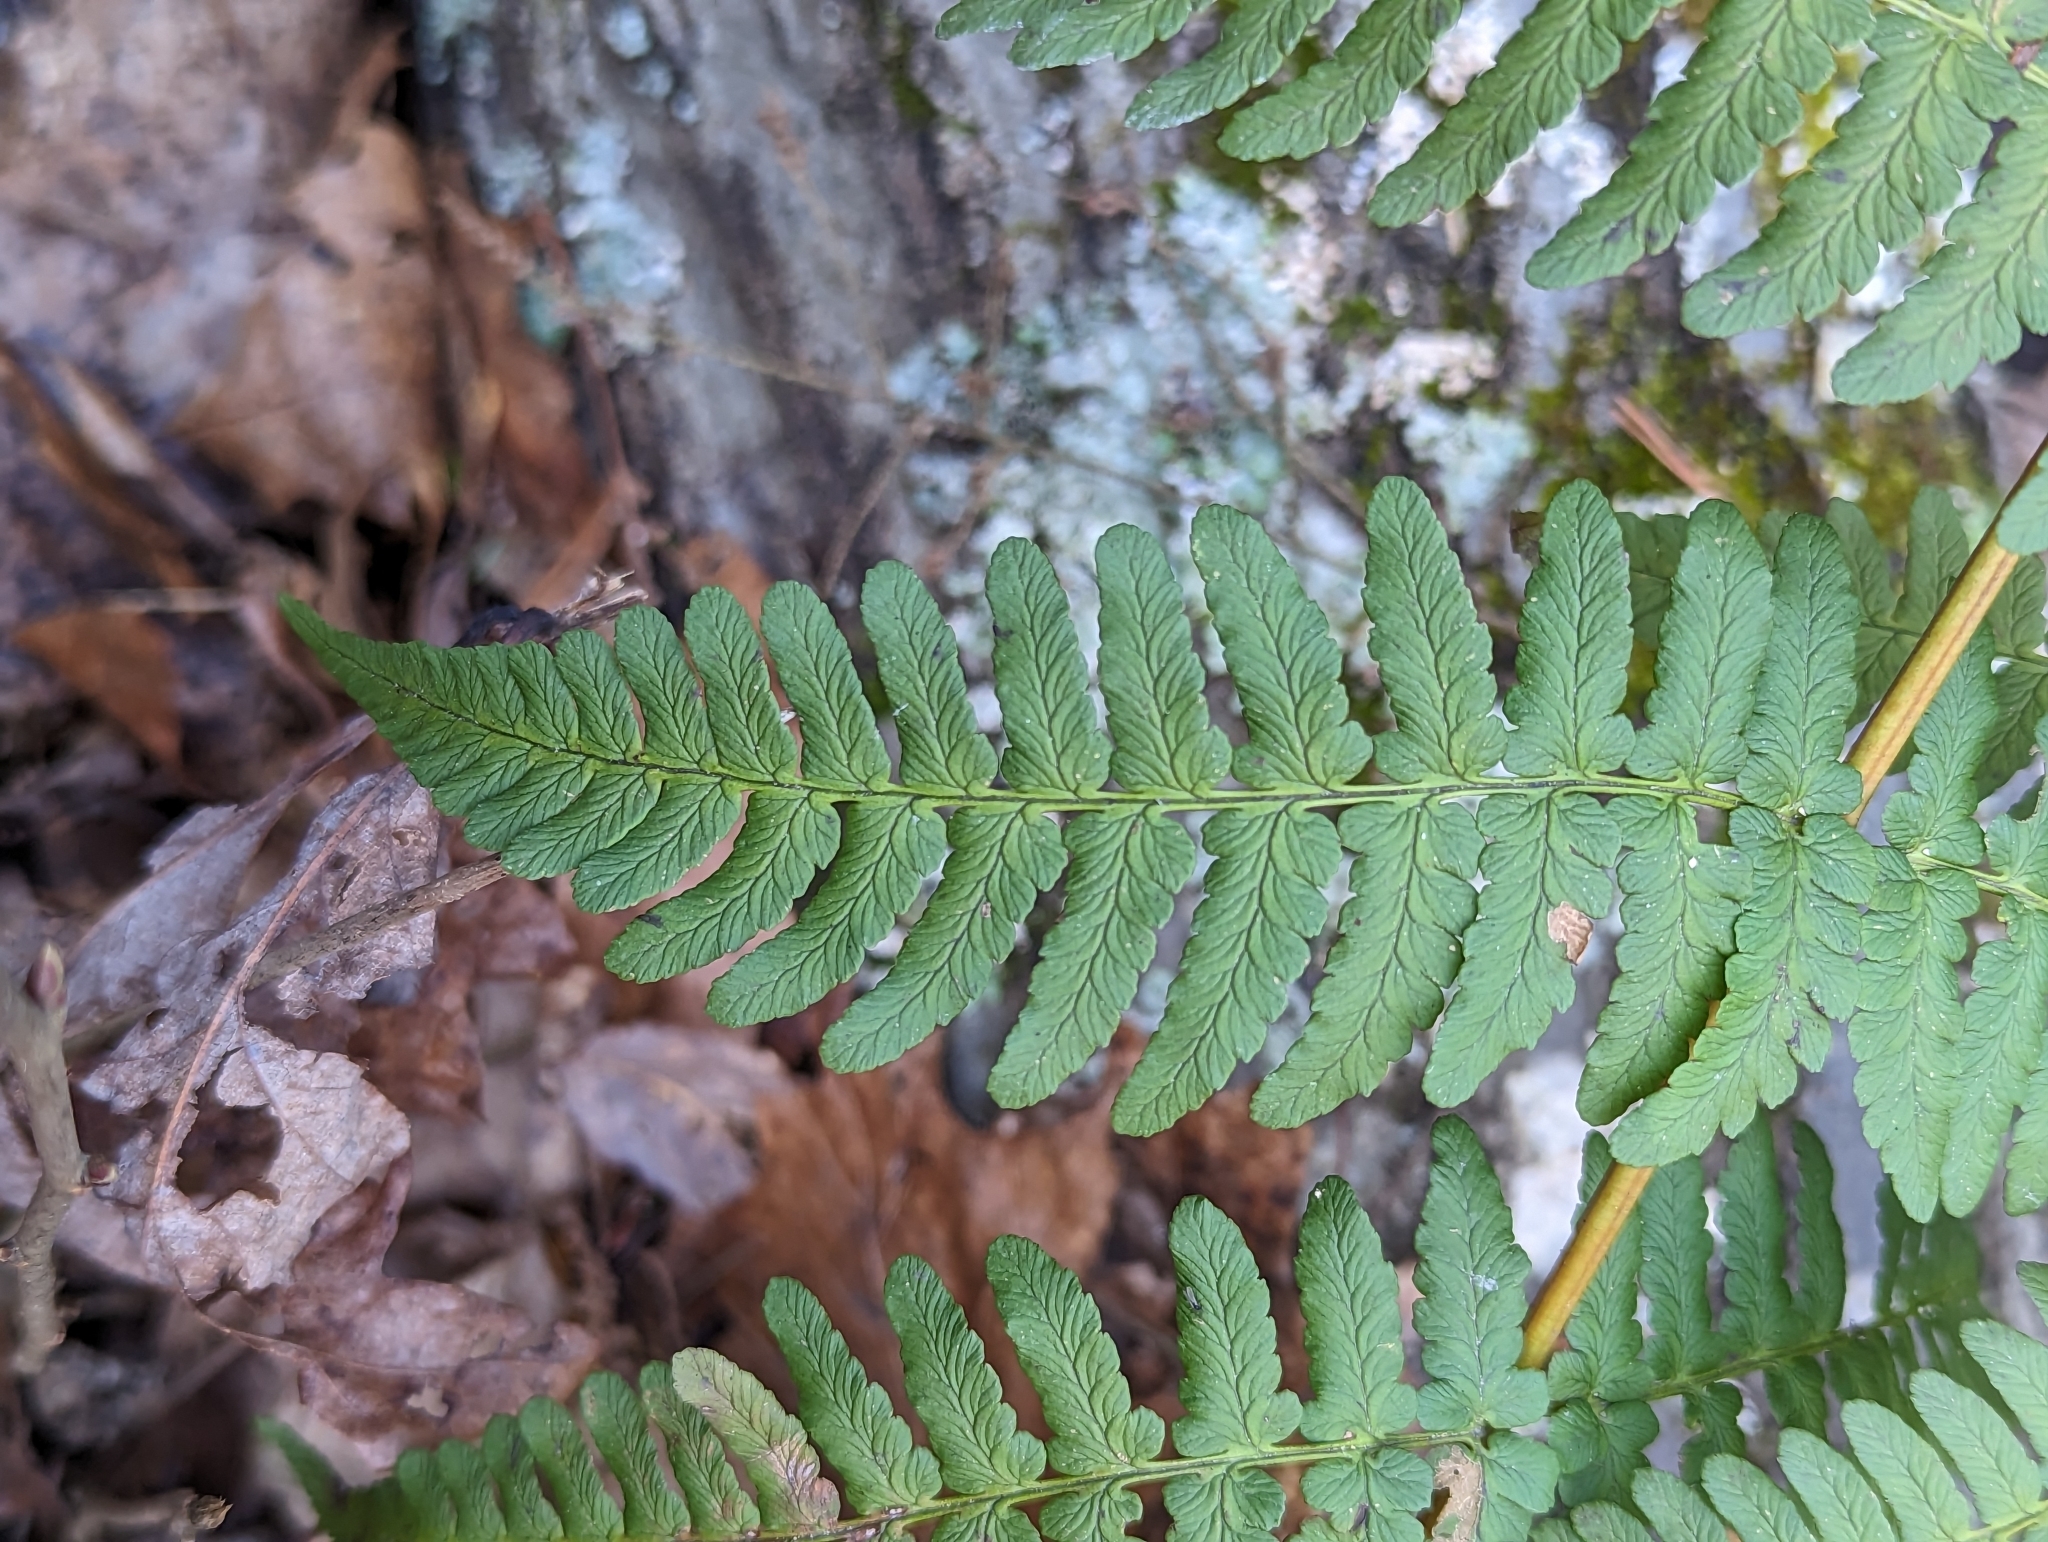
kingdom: Plantae
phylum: Tracheophyta
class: Polypodiopsida
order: Polypodiales
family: Dryopteridaceae
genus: Dryopteris
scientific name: Dryopteris marginalis
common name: Marginal wood fern
